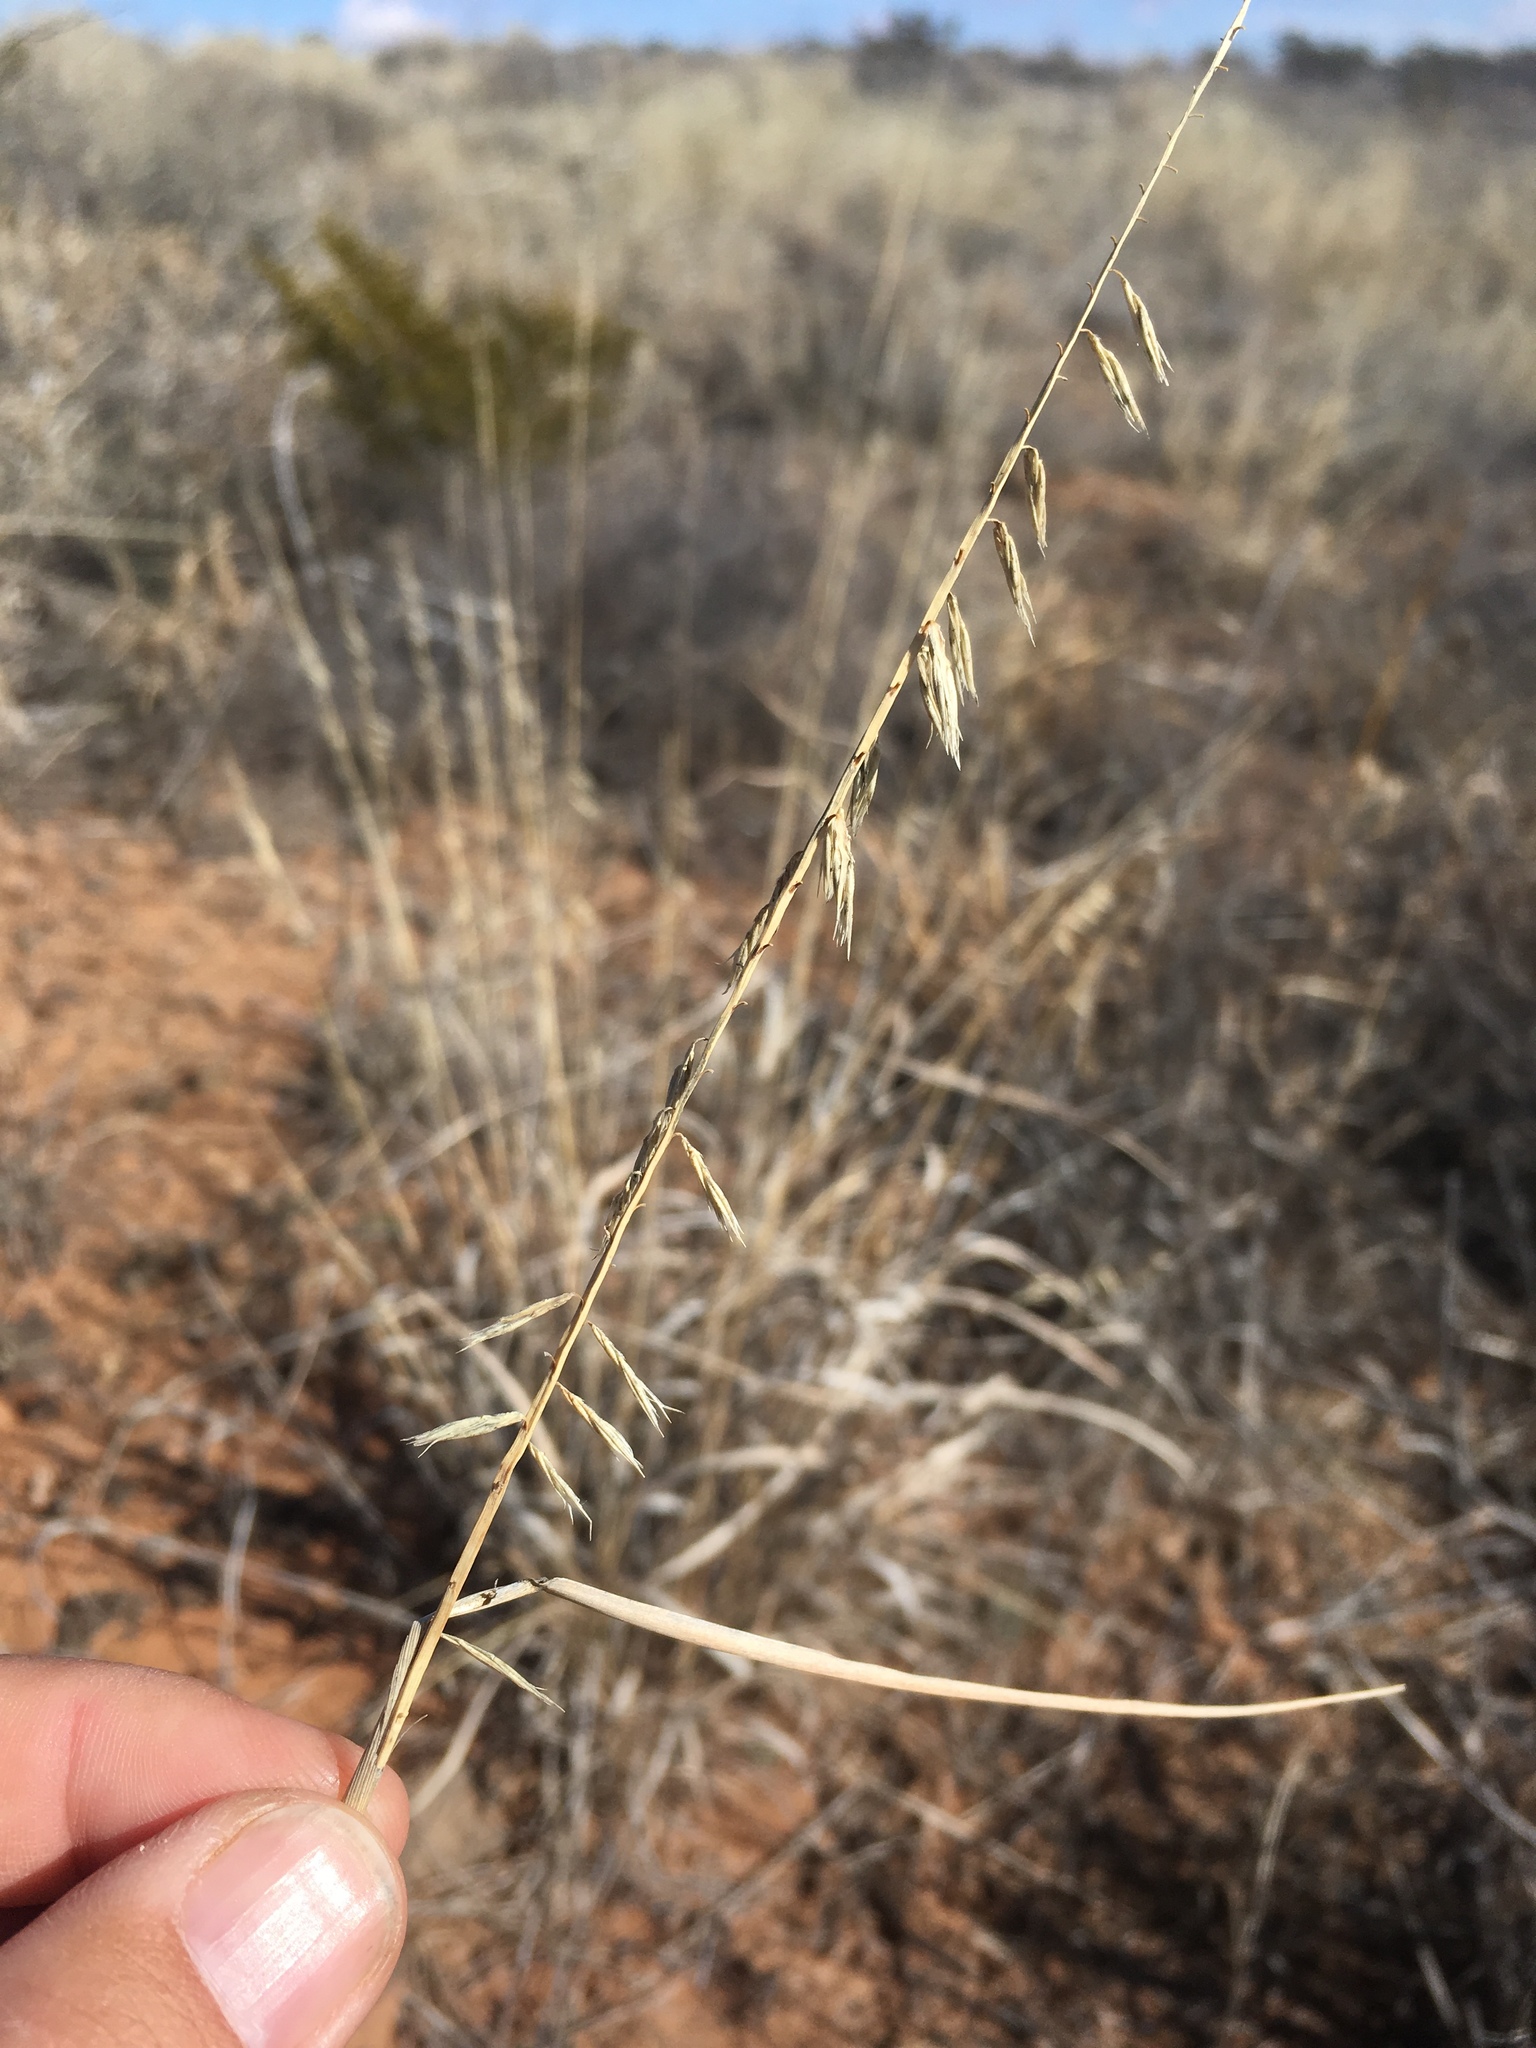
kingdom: Plantae
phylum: Tracheophyta
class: Liliopsida
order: Poales
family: Poaceae
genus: Bouteloua
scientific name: Bouteloua curtipendula
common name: Side-oats grama
